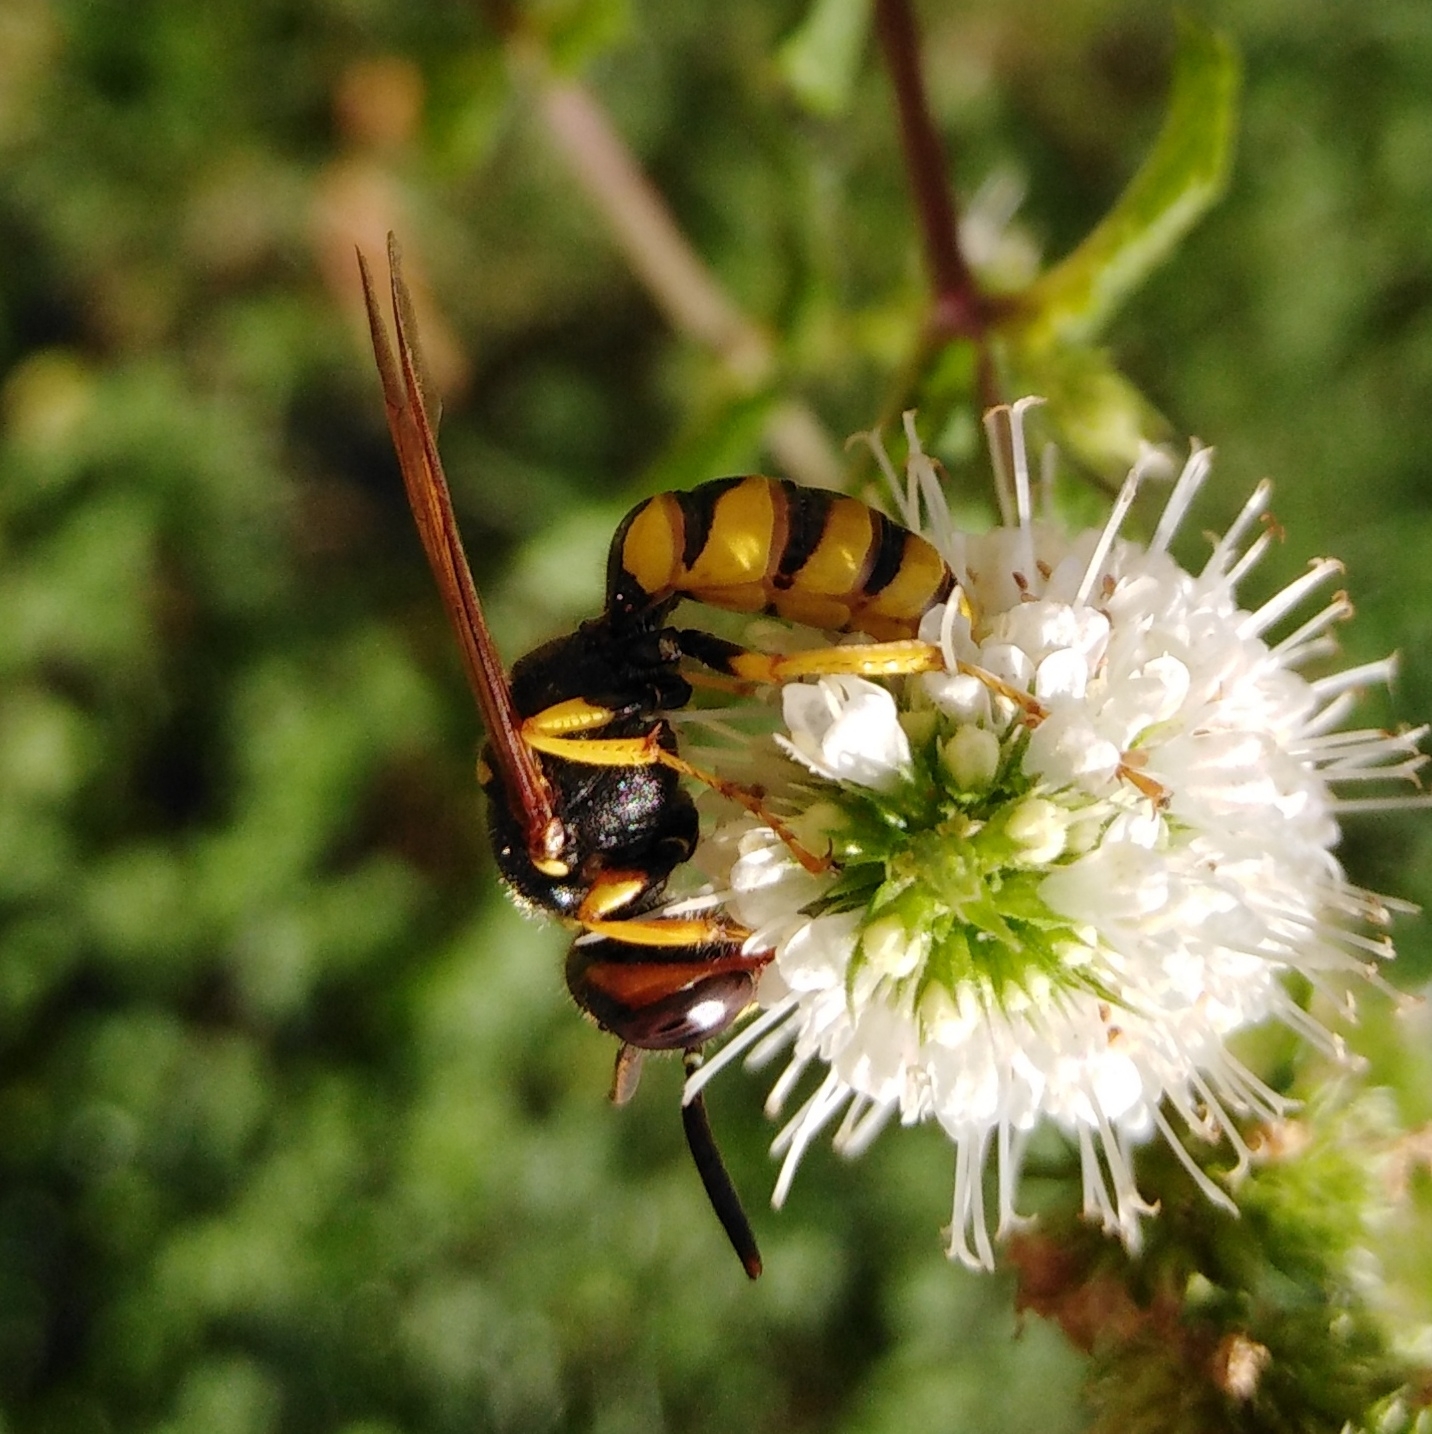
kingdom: Animalia
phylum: Arthropoda
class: Insecta
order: Hymenoptera
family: Crabronidae
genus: Philanthus
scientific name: Philanthus triangulum
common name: Bee wolf
